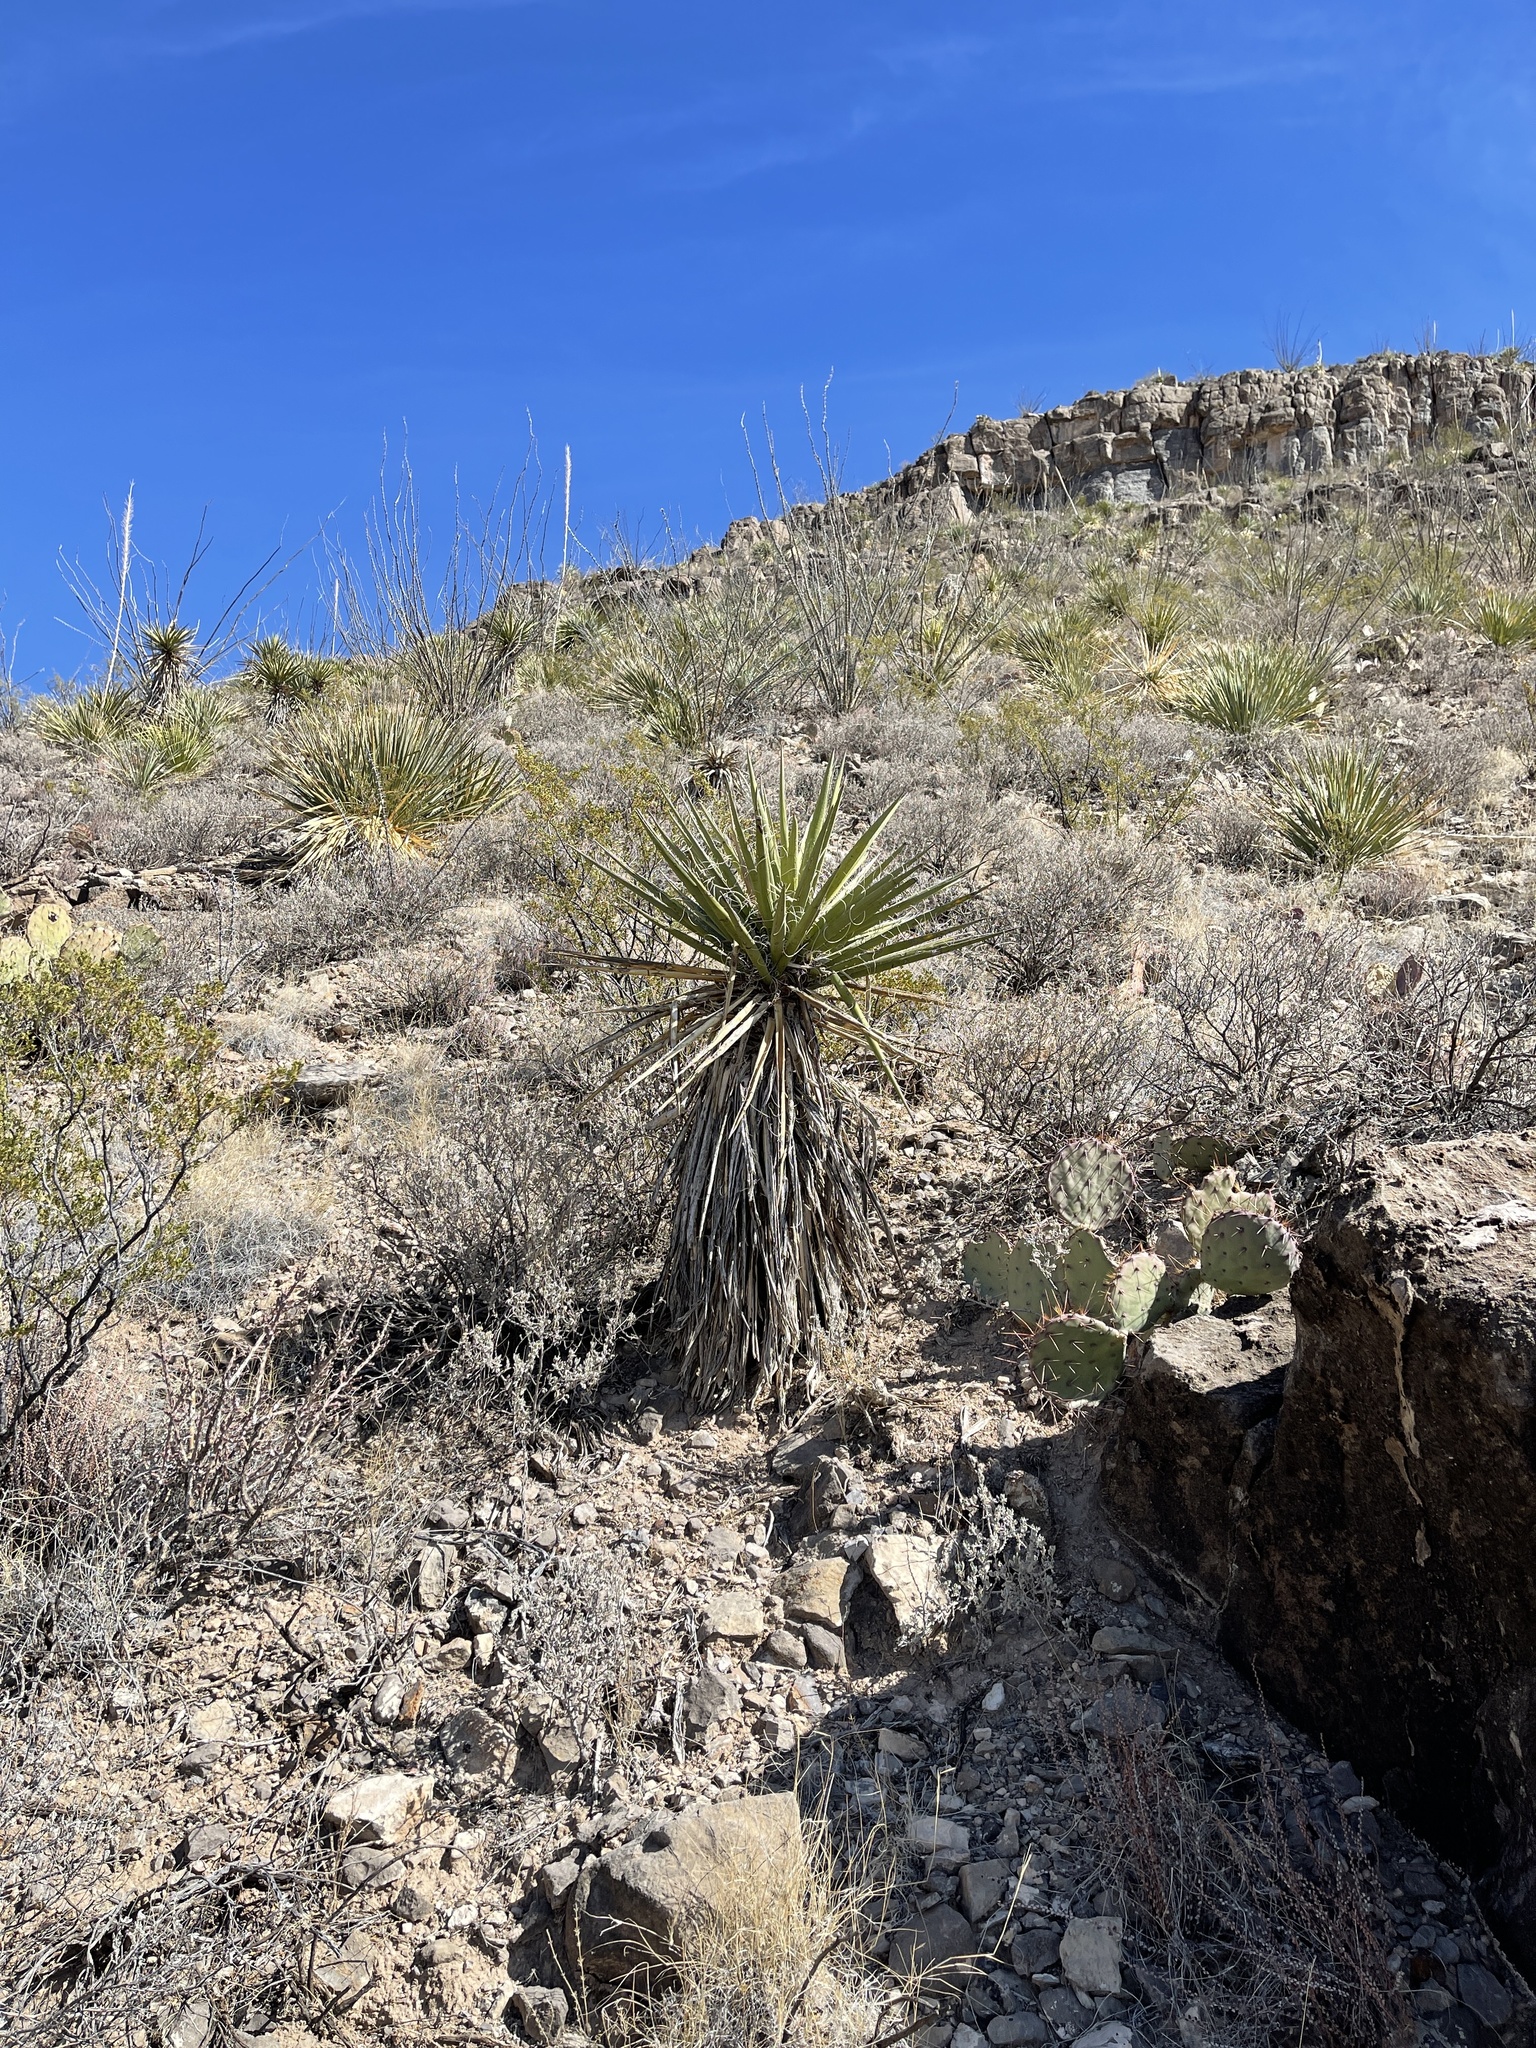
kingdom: Plantae
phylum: Tracheophyta
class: Liliopsida
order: Asparagales
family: Asparagaceae
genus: Yucca
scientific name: Yucca treculiana
